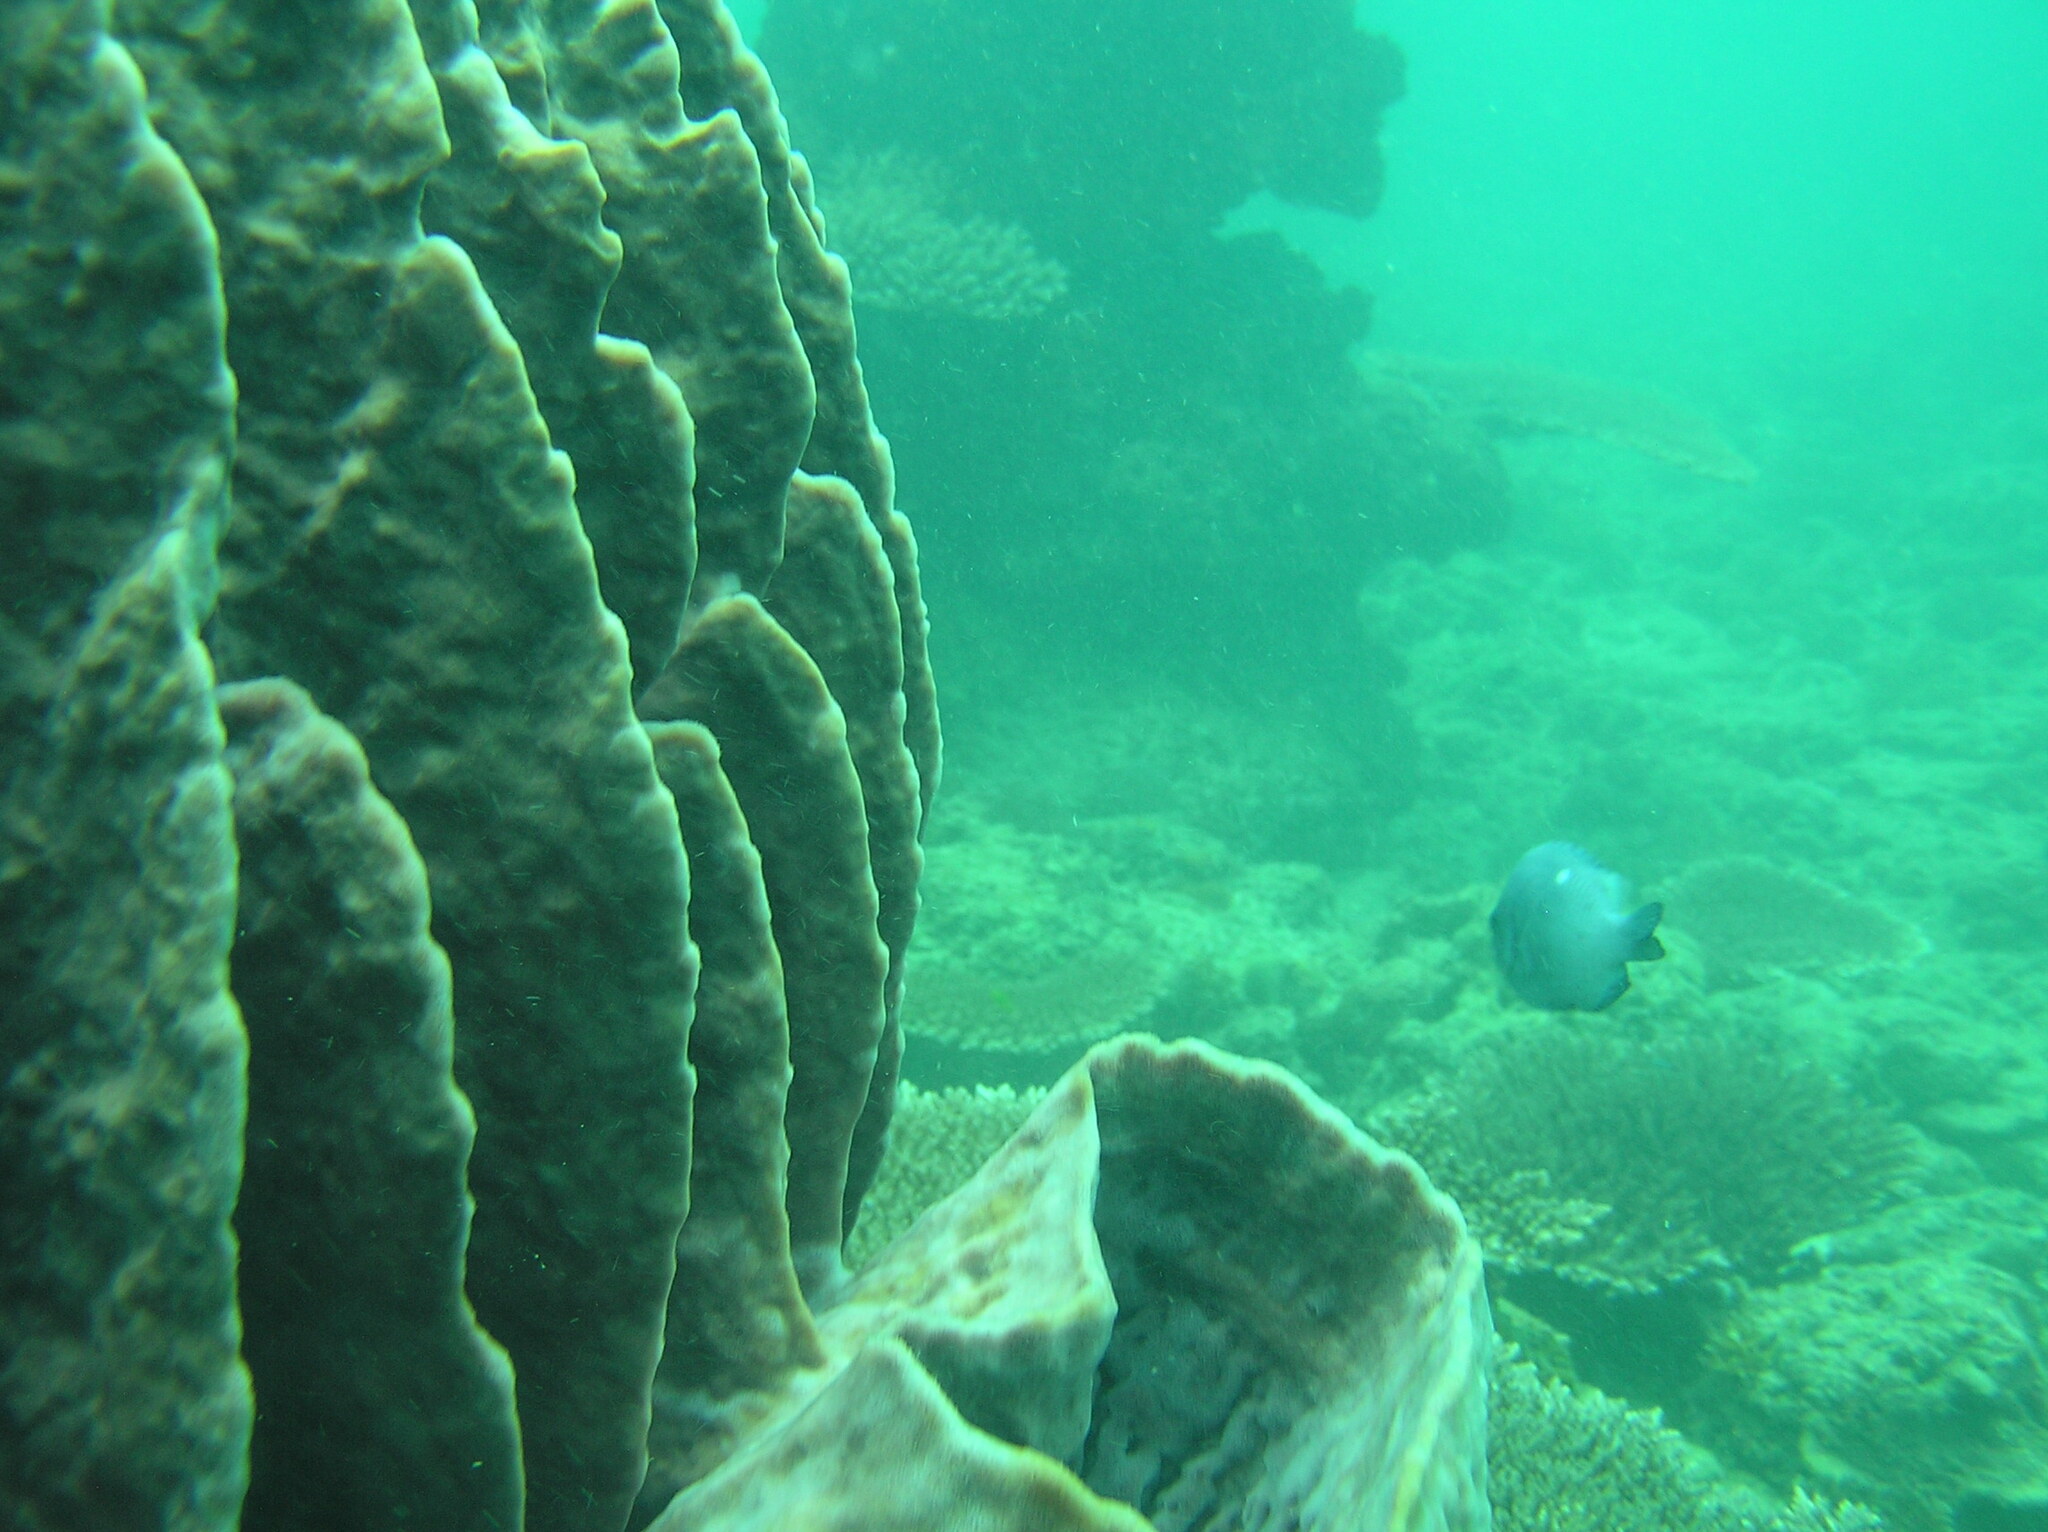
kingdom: Animalia
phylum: Chordata
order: Perciformes
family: Pomacentridae
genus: Dascyllus
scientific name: Dascyllus trimaculatus
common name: Threespot dascyllus
